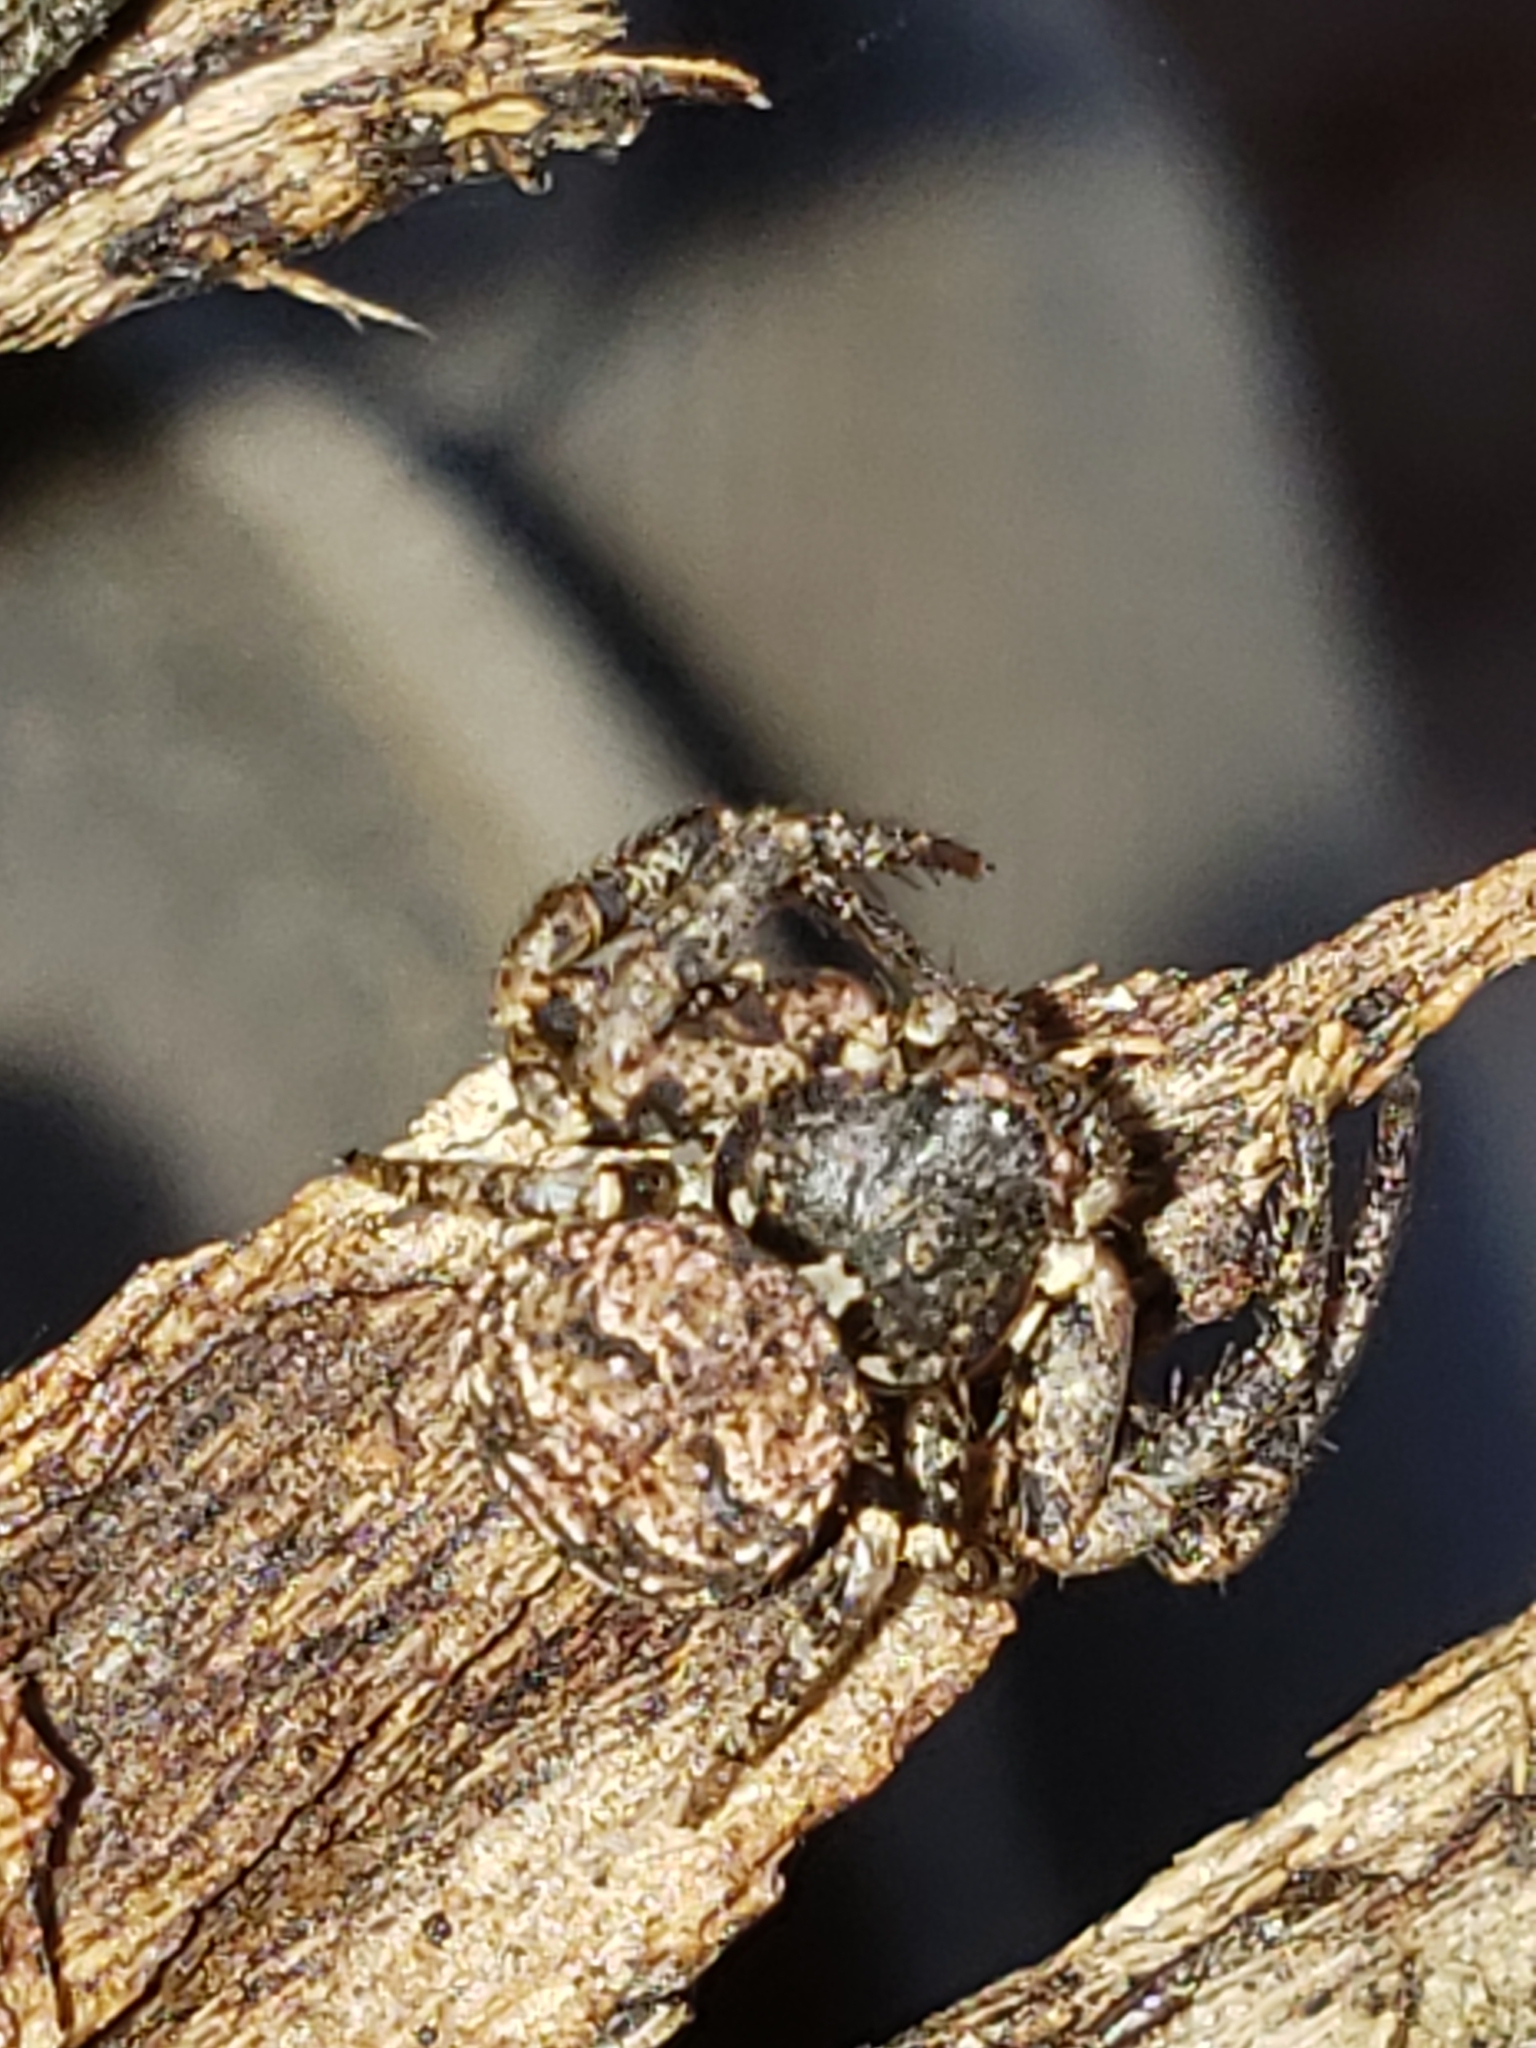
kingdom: Animalia
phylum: Arthropoda
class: Arachnida
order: Araneae
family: Thomisidae
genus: Bassaniana
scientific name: Bassaniana versicolor
